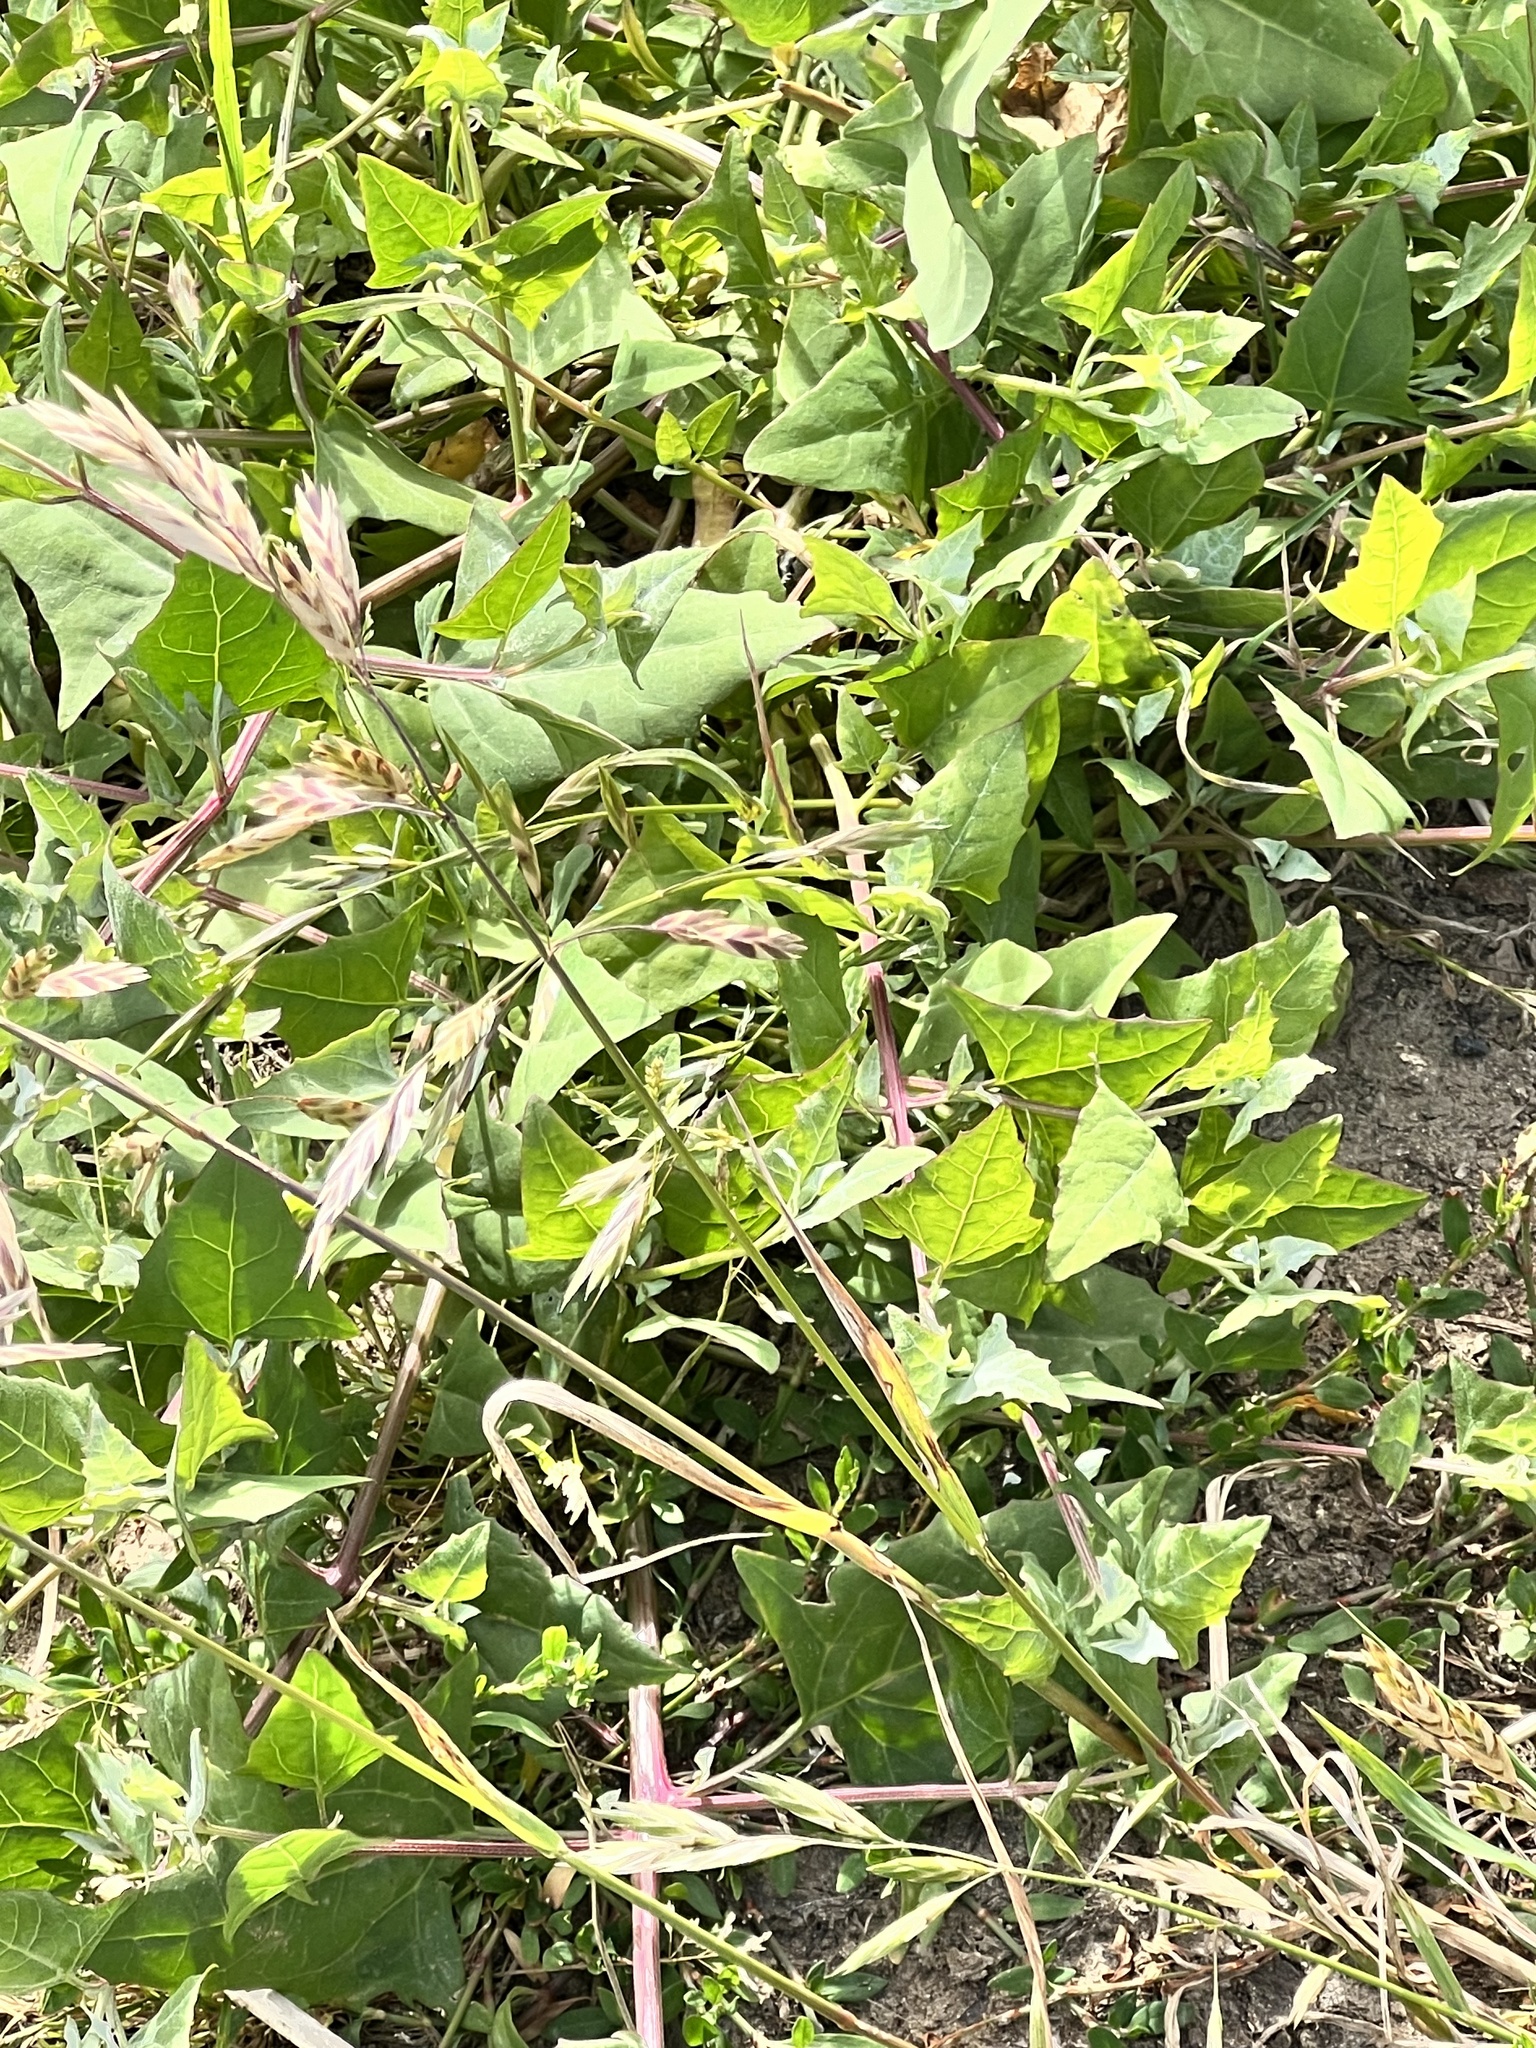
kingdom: Plantae
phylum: Tracheophyta
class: Magnoliopsida
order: Caryophyllales
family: Amaranthaceae
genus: Atriplex
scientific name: Atriplex prostrata
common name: Spear-leaved orache
